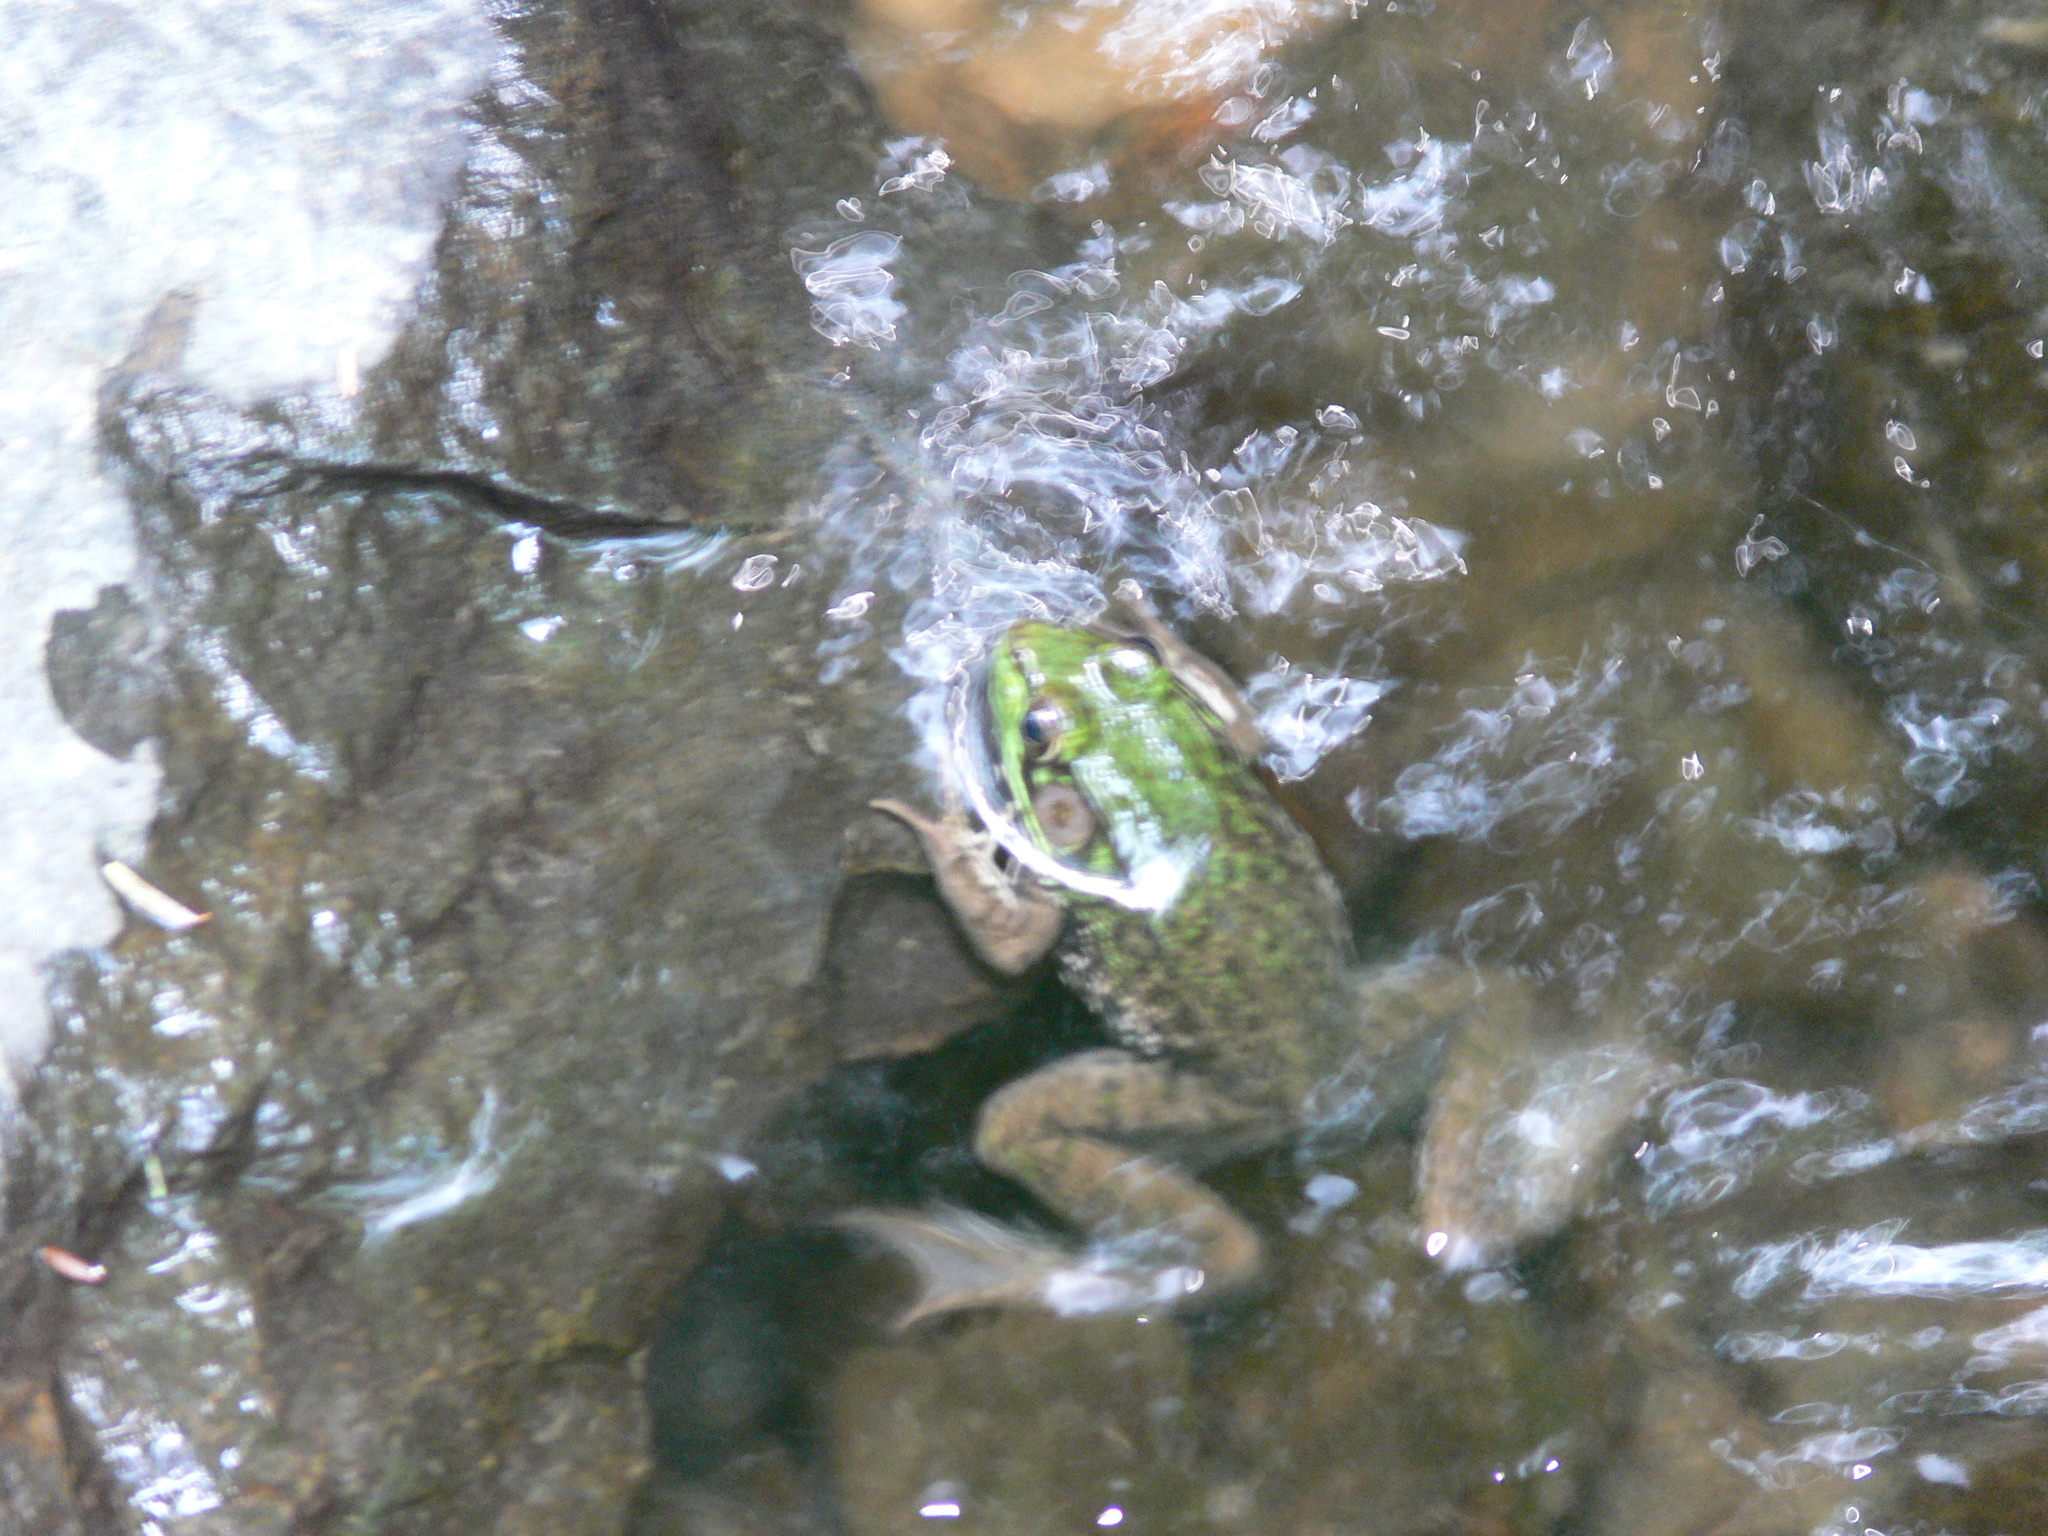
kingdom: Animalia
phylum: Chordata
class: Amphibia
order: Anura
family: Ranidae
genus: Lithobates
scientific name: Lithobates clamitans
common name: Green frog
